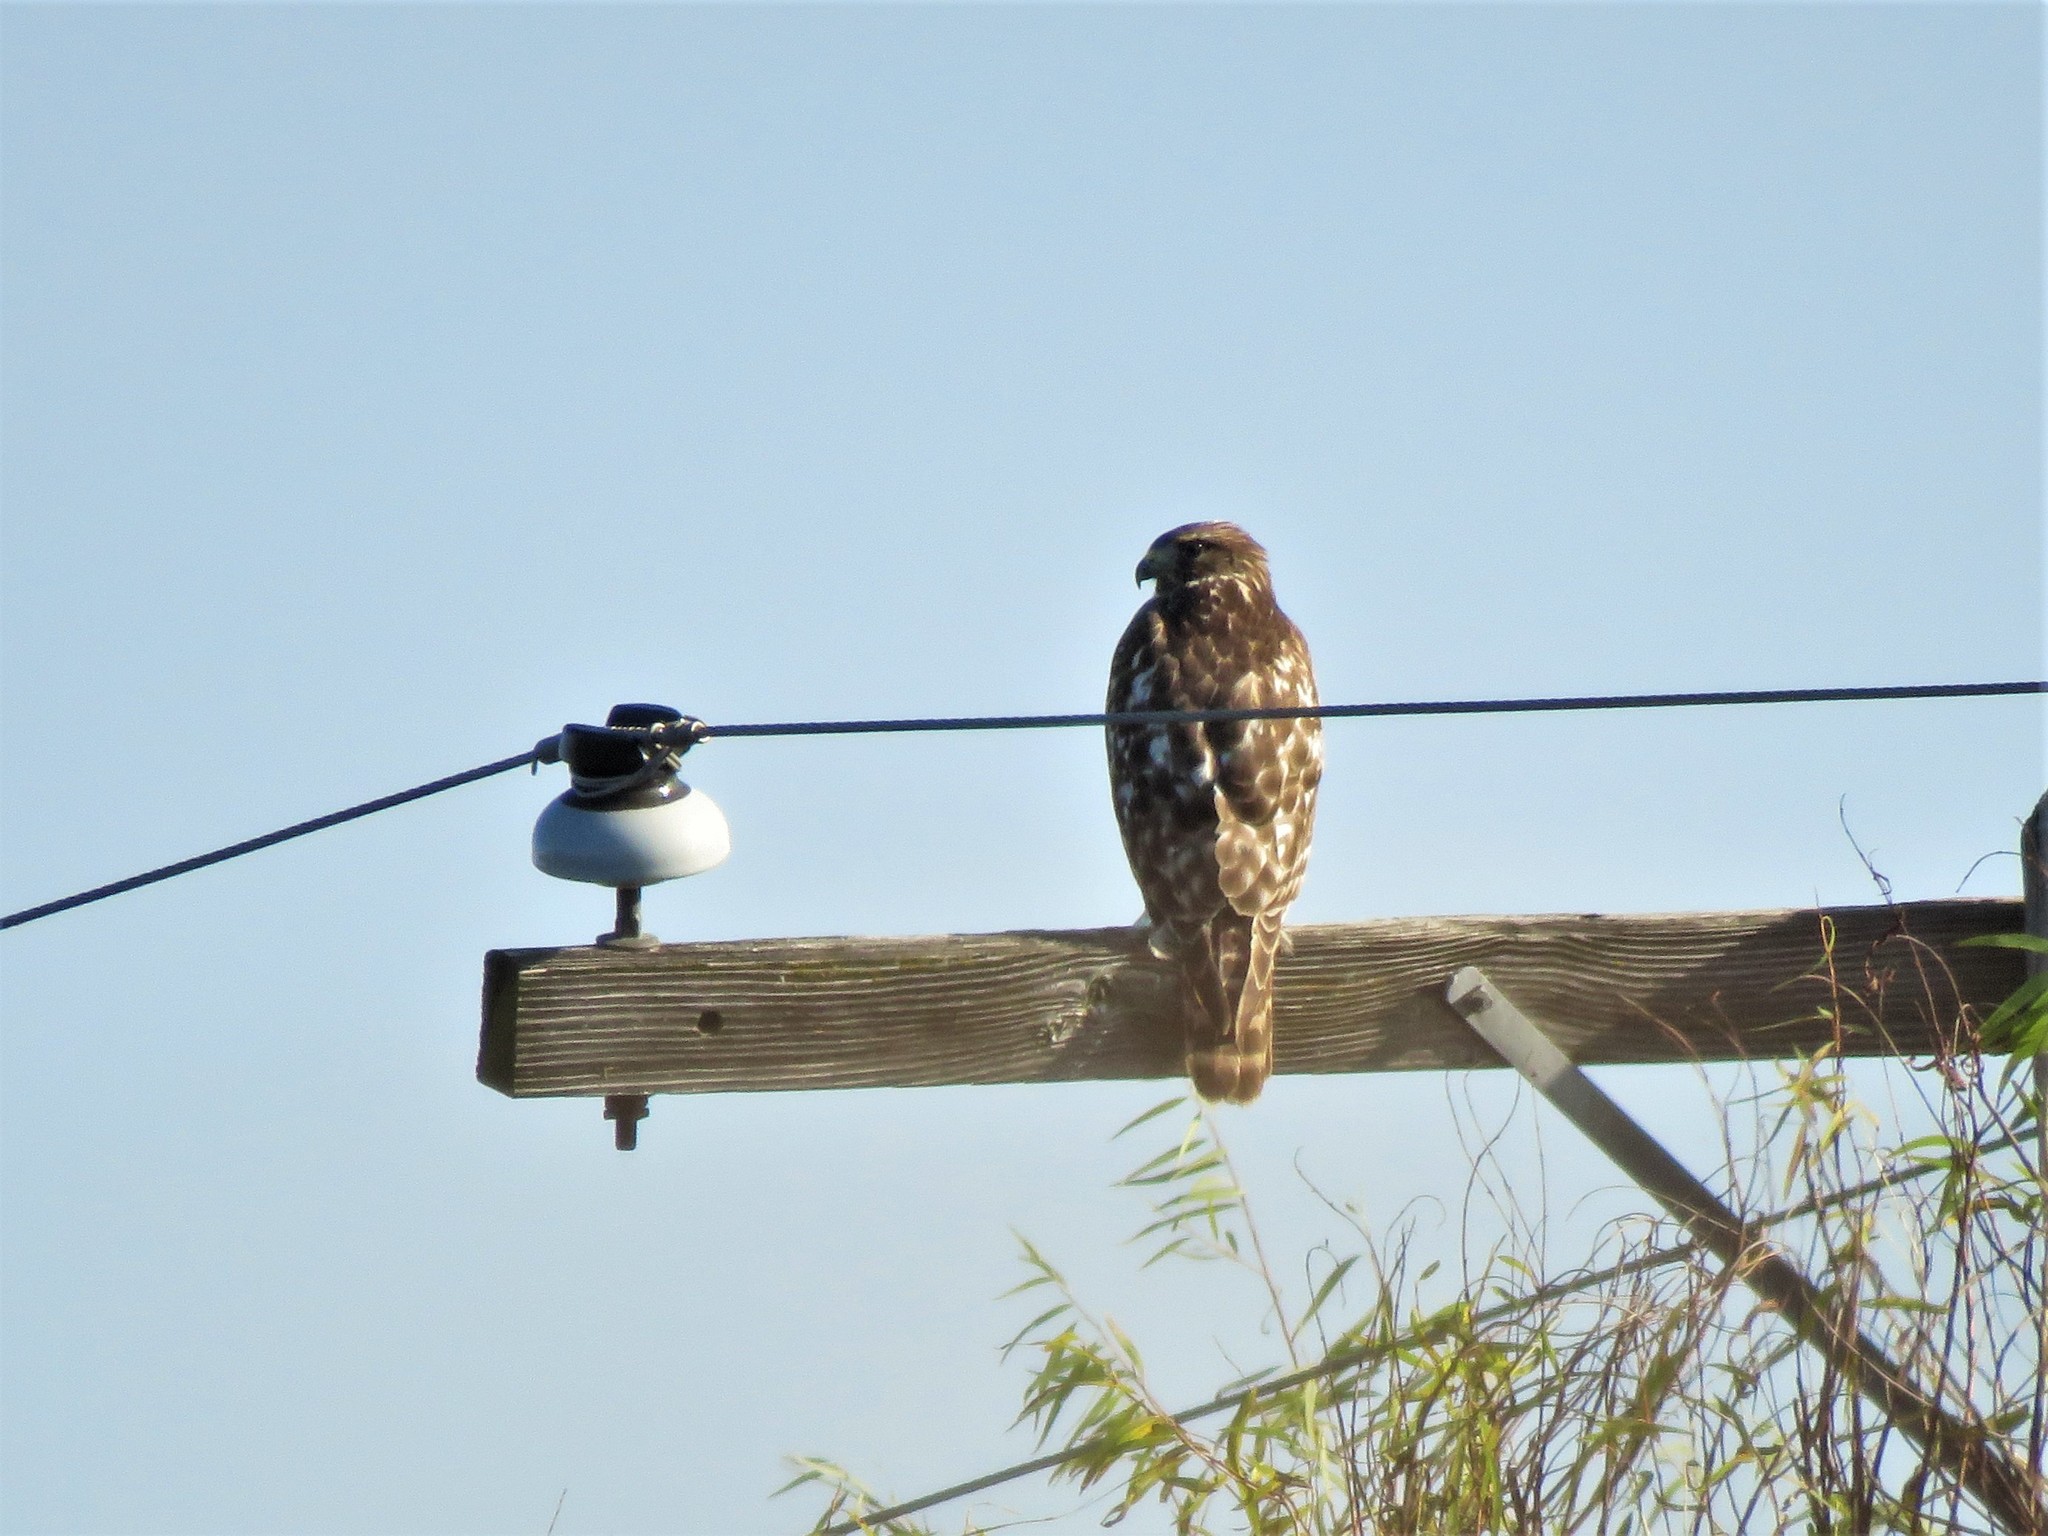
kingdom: Animalia
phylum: Chordata
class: Aves
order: Accipitriformes
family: Accipitridae
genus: Buteo
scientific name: Buteo lineatus
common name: Red-shouldered hawk
